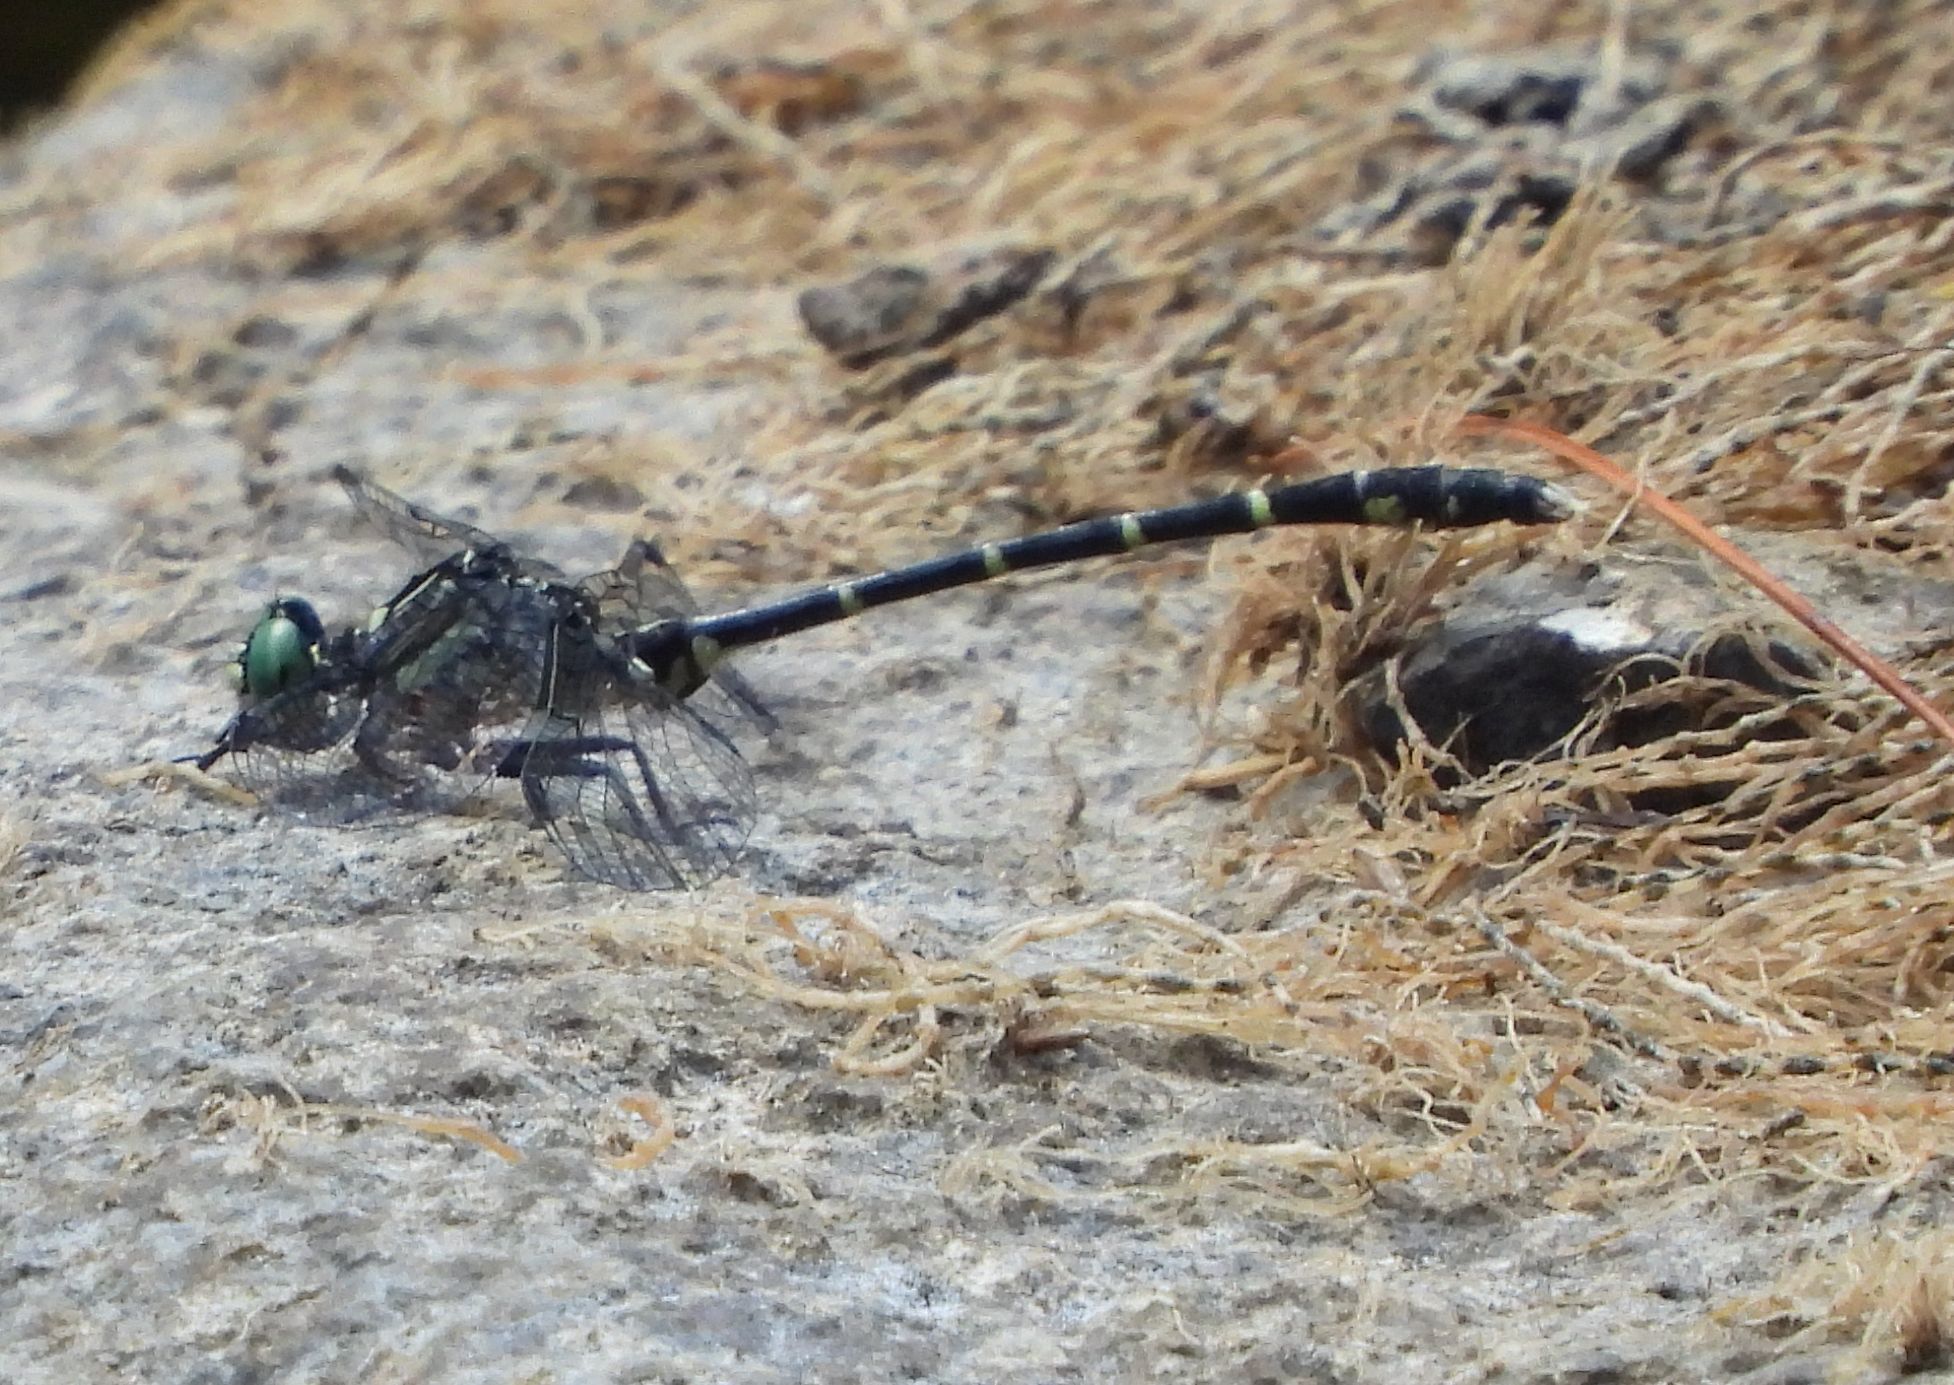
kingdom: Animalia
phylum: Arthropoda
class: Insecta
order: Odonata
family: Gomphidae
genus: Stylogomphus
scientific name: Stylogomphus albistylus
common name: Eastern least clubtail
